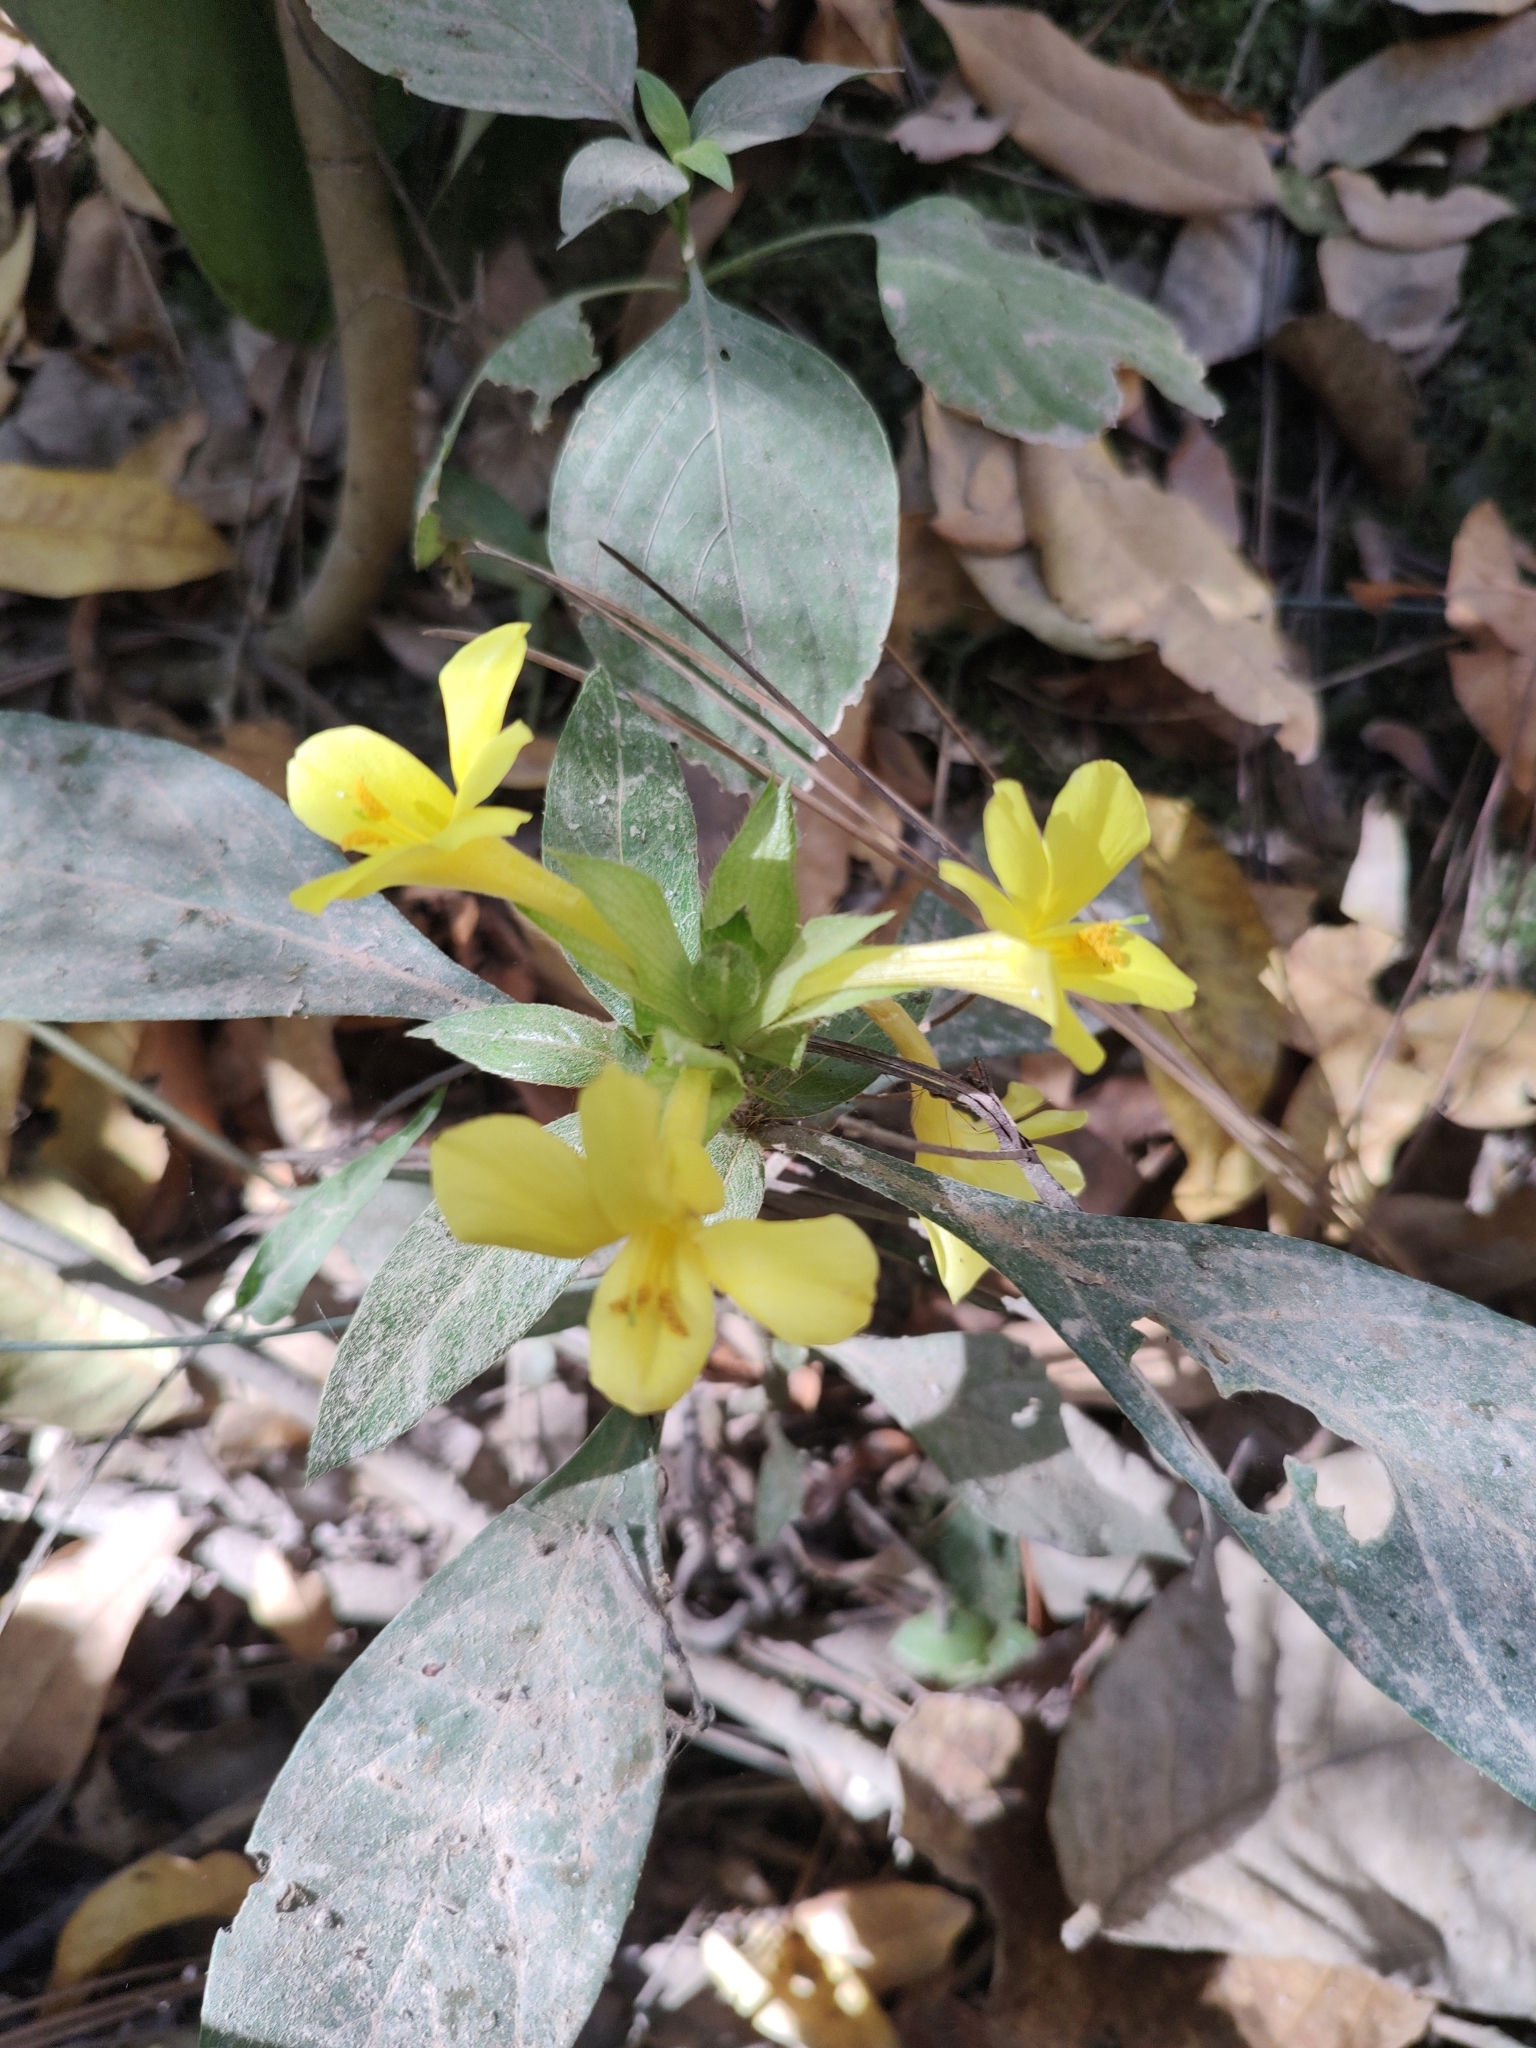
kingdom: Plantae
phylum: Tracheophyta
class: Magnoliopsida
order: Lamiales
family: Acanthaceae
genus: Barleria
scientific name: Barleria oenotheroides
